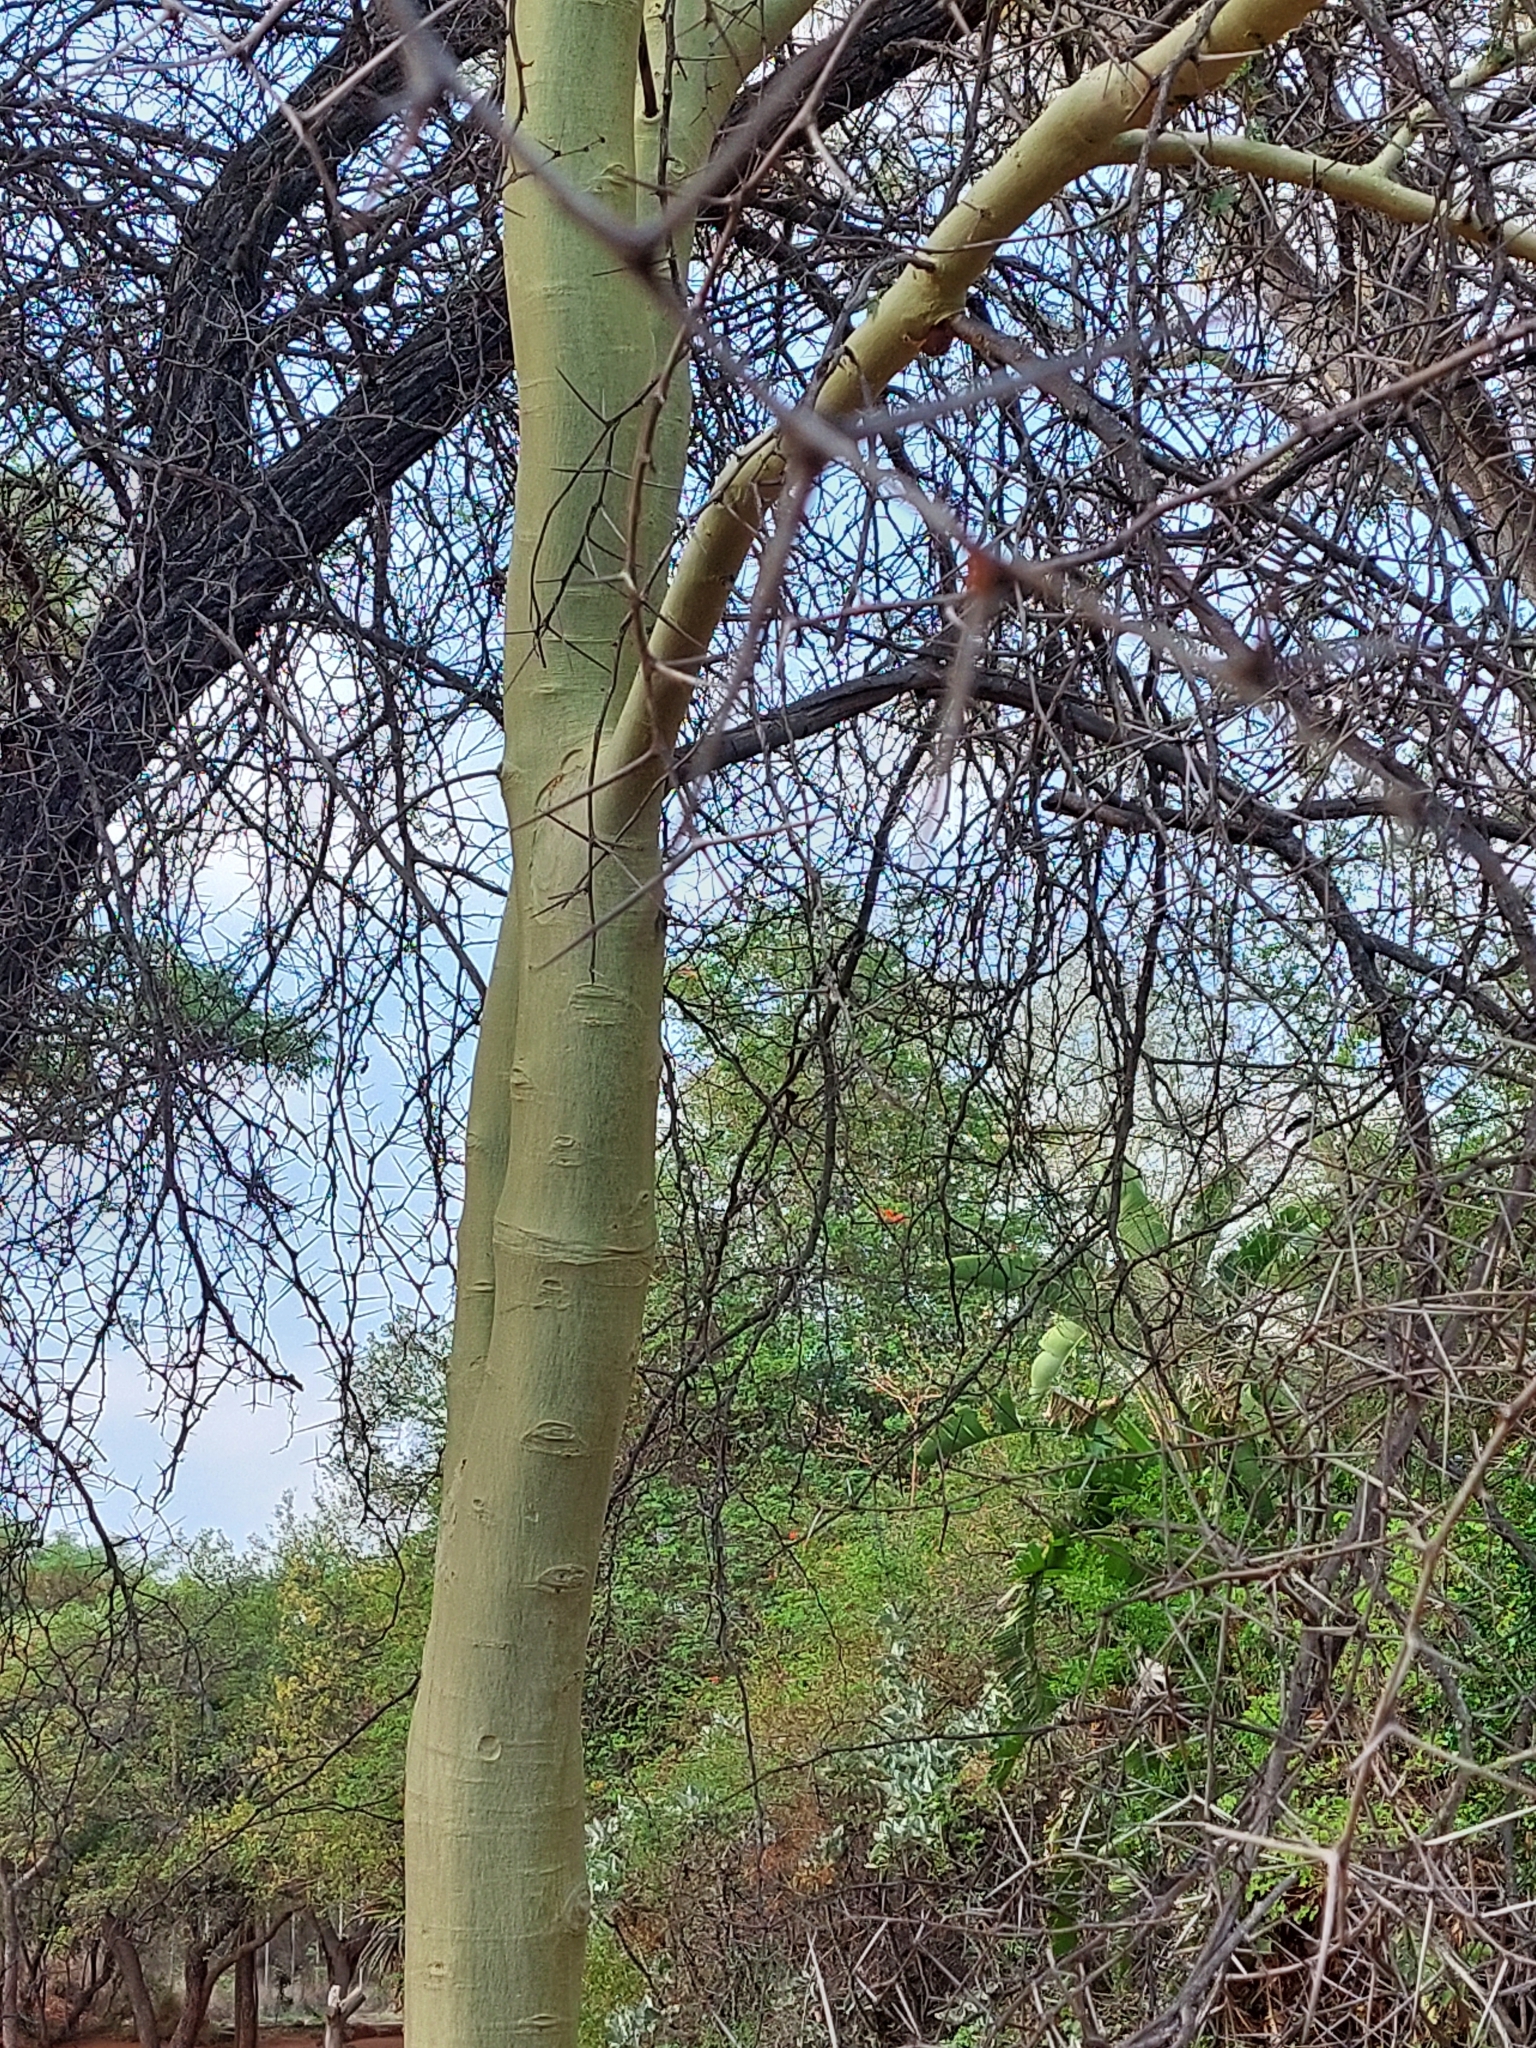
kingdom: Plantae
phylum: Tracheophyta
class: Magnoliopsida
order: Fabales
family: Fabaceae
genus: Vachellia
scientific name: Vachellia xanthophloea
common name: Fever tree
